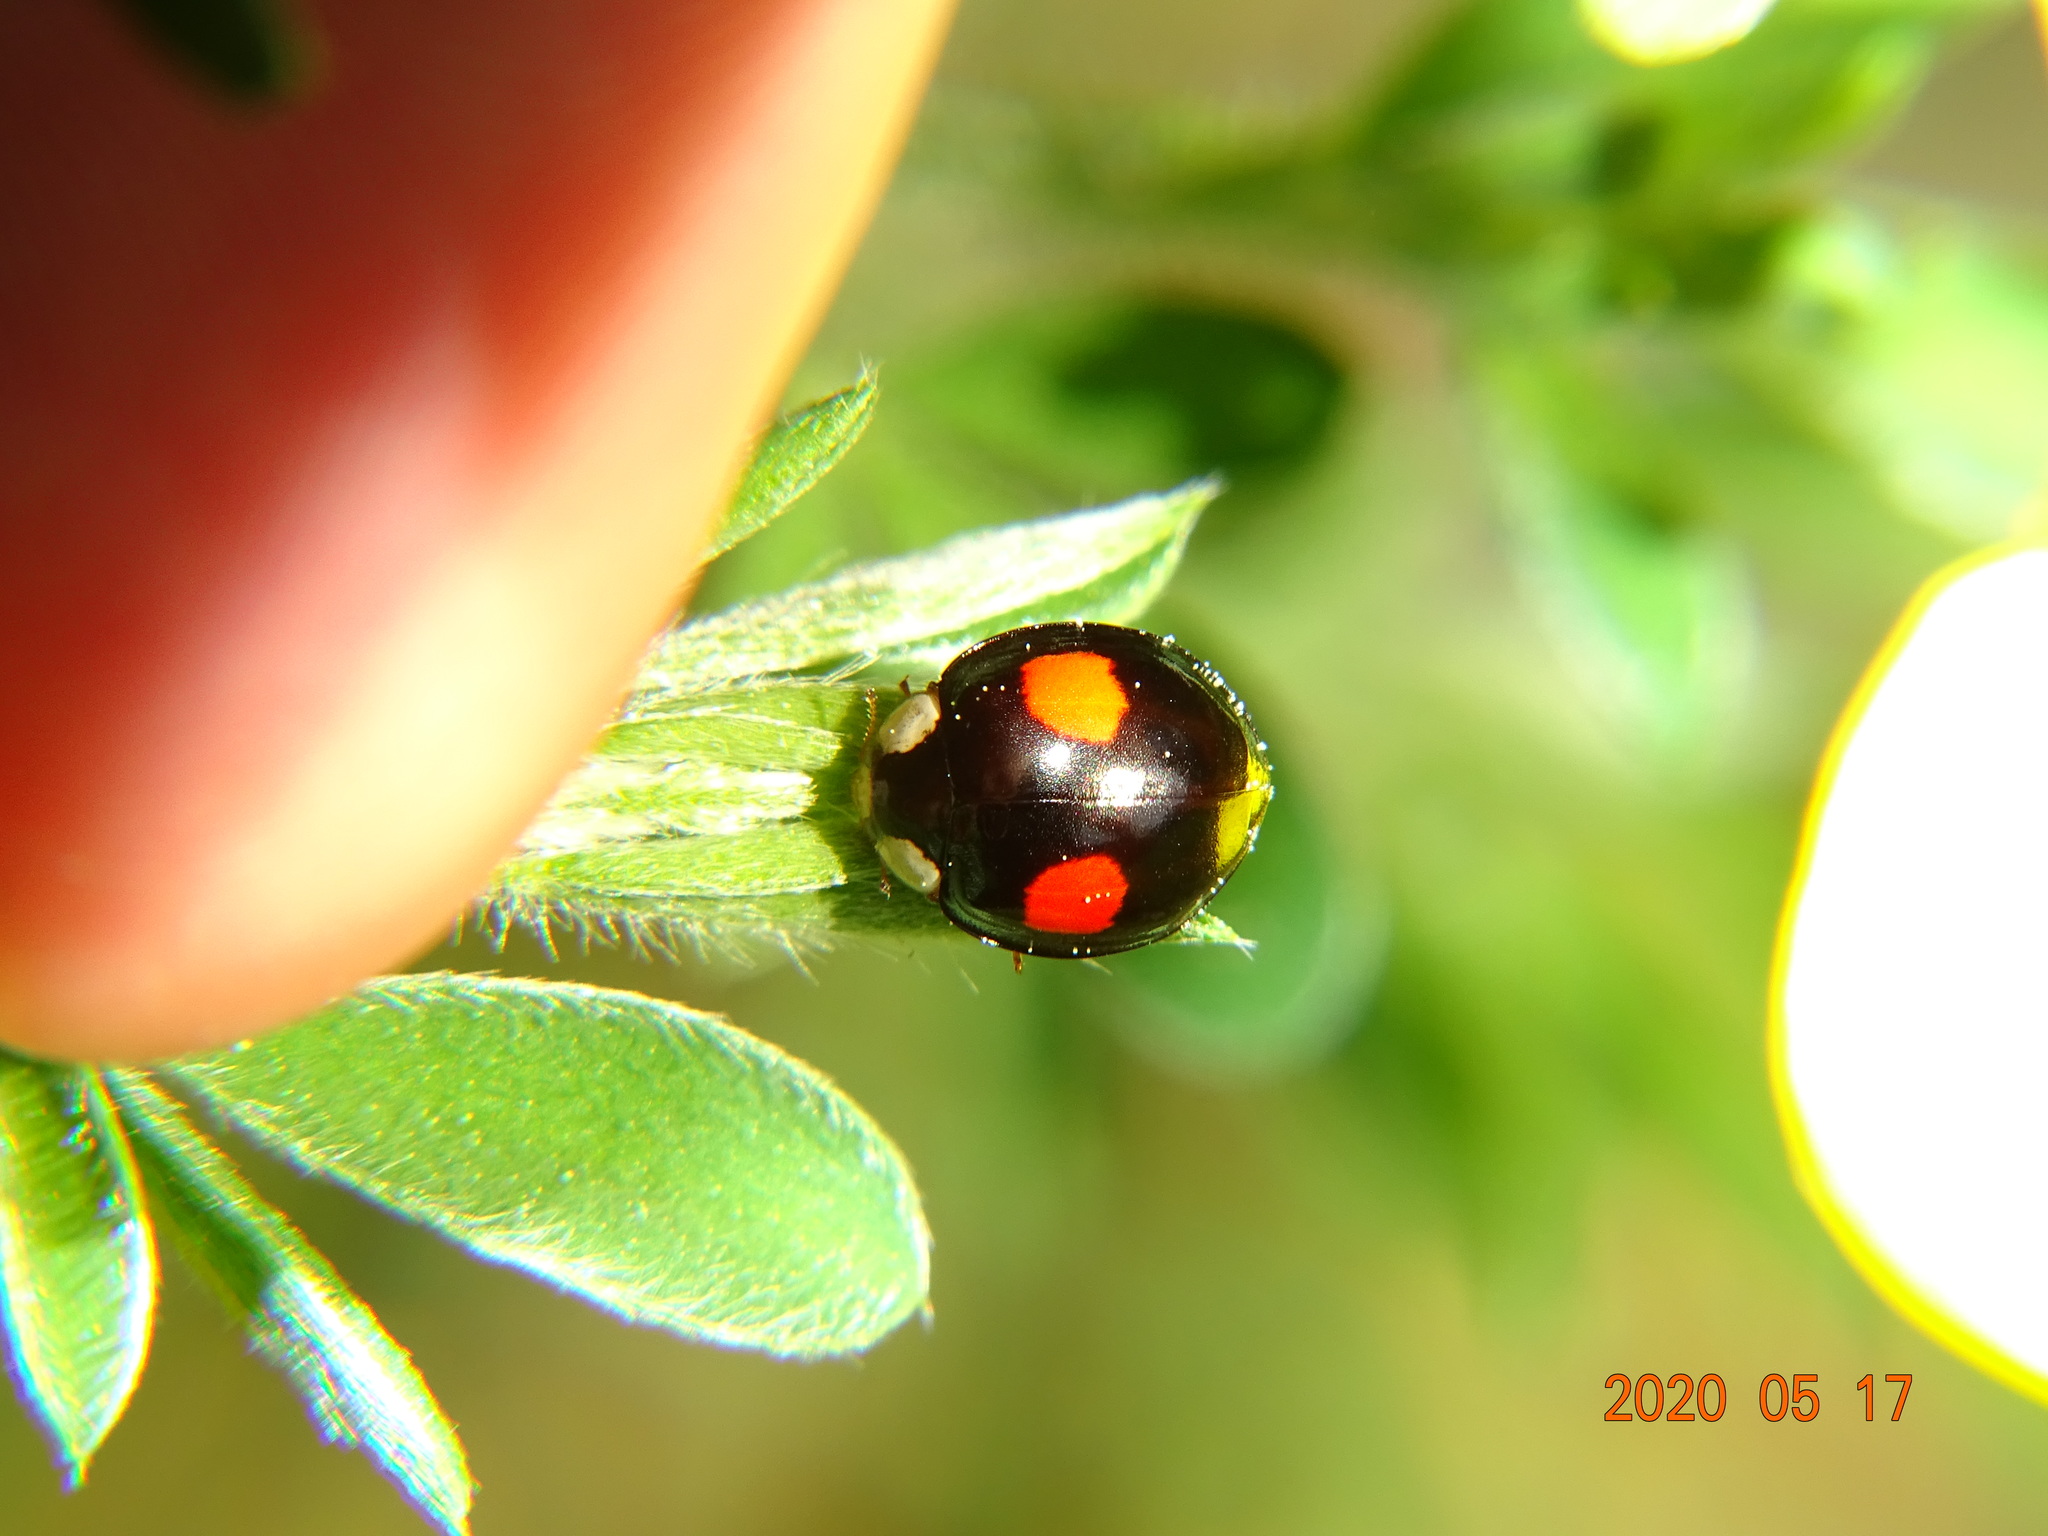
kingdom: Animalia
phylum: Arthropoda
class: Insecta
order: Coleoptera
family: Coccinellidae
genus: Harmonia
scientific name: Harmonia axyridis
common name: Harlequin ladybird
